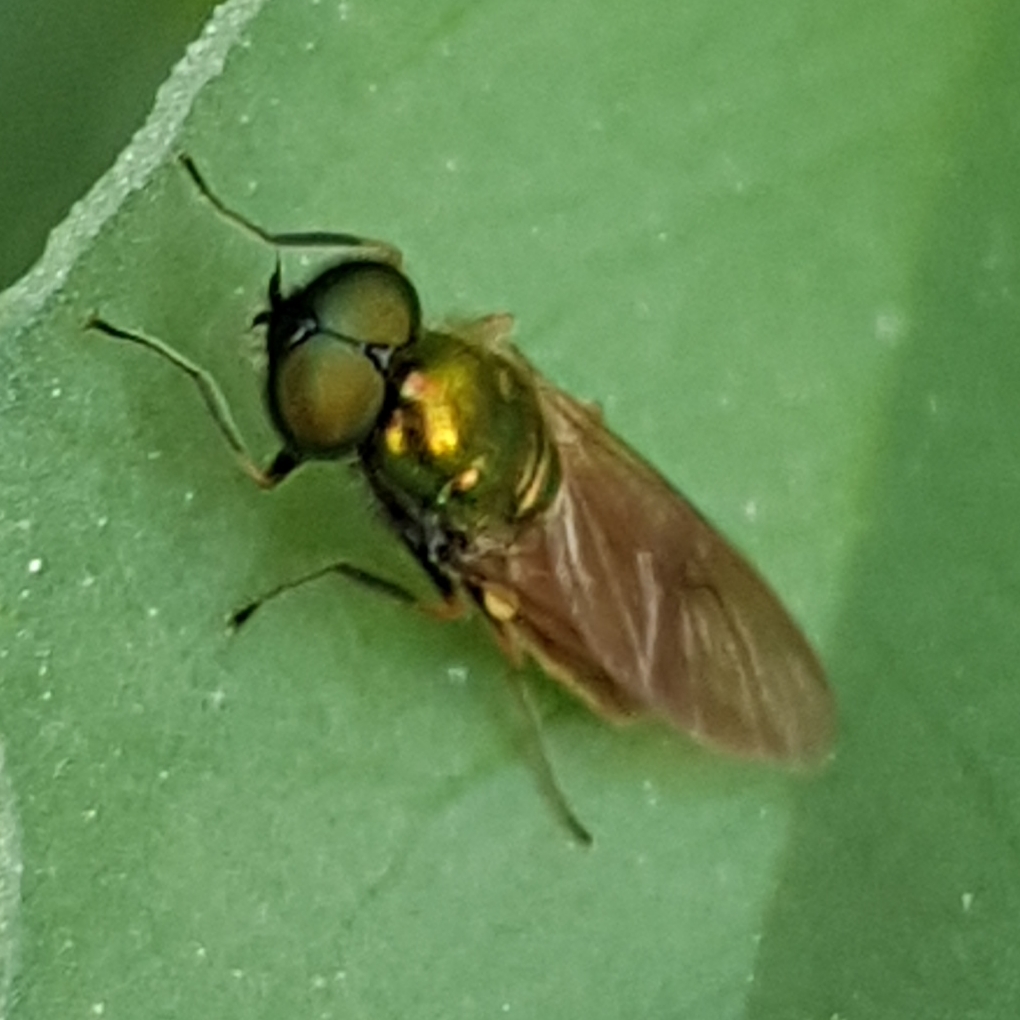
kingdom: Animalia
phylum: Arthropoda
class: Insecta
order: Diptera
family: Stratiomyidae
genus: Chloromyia
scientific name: Chloromyia formosa
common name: Soldier fly
